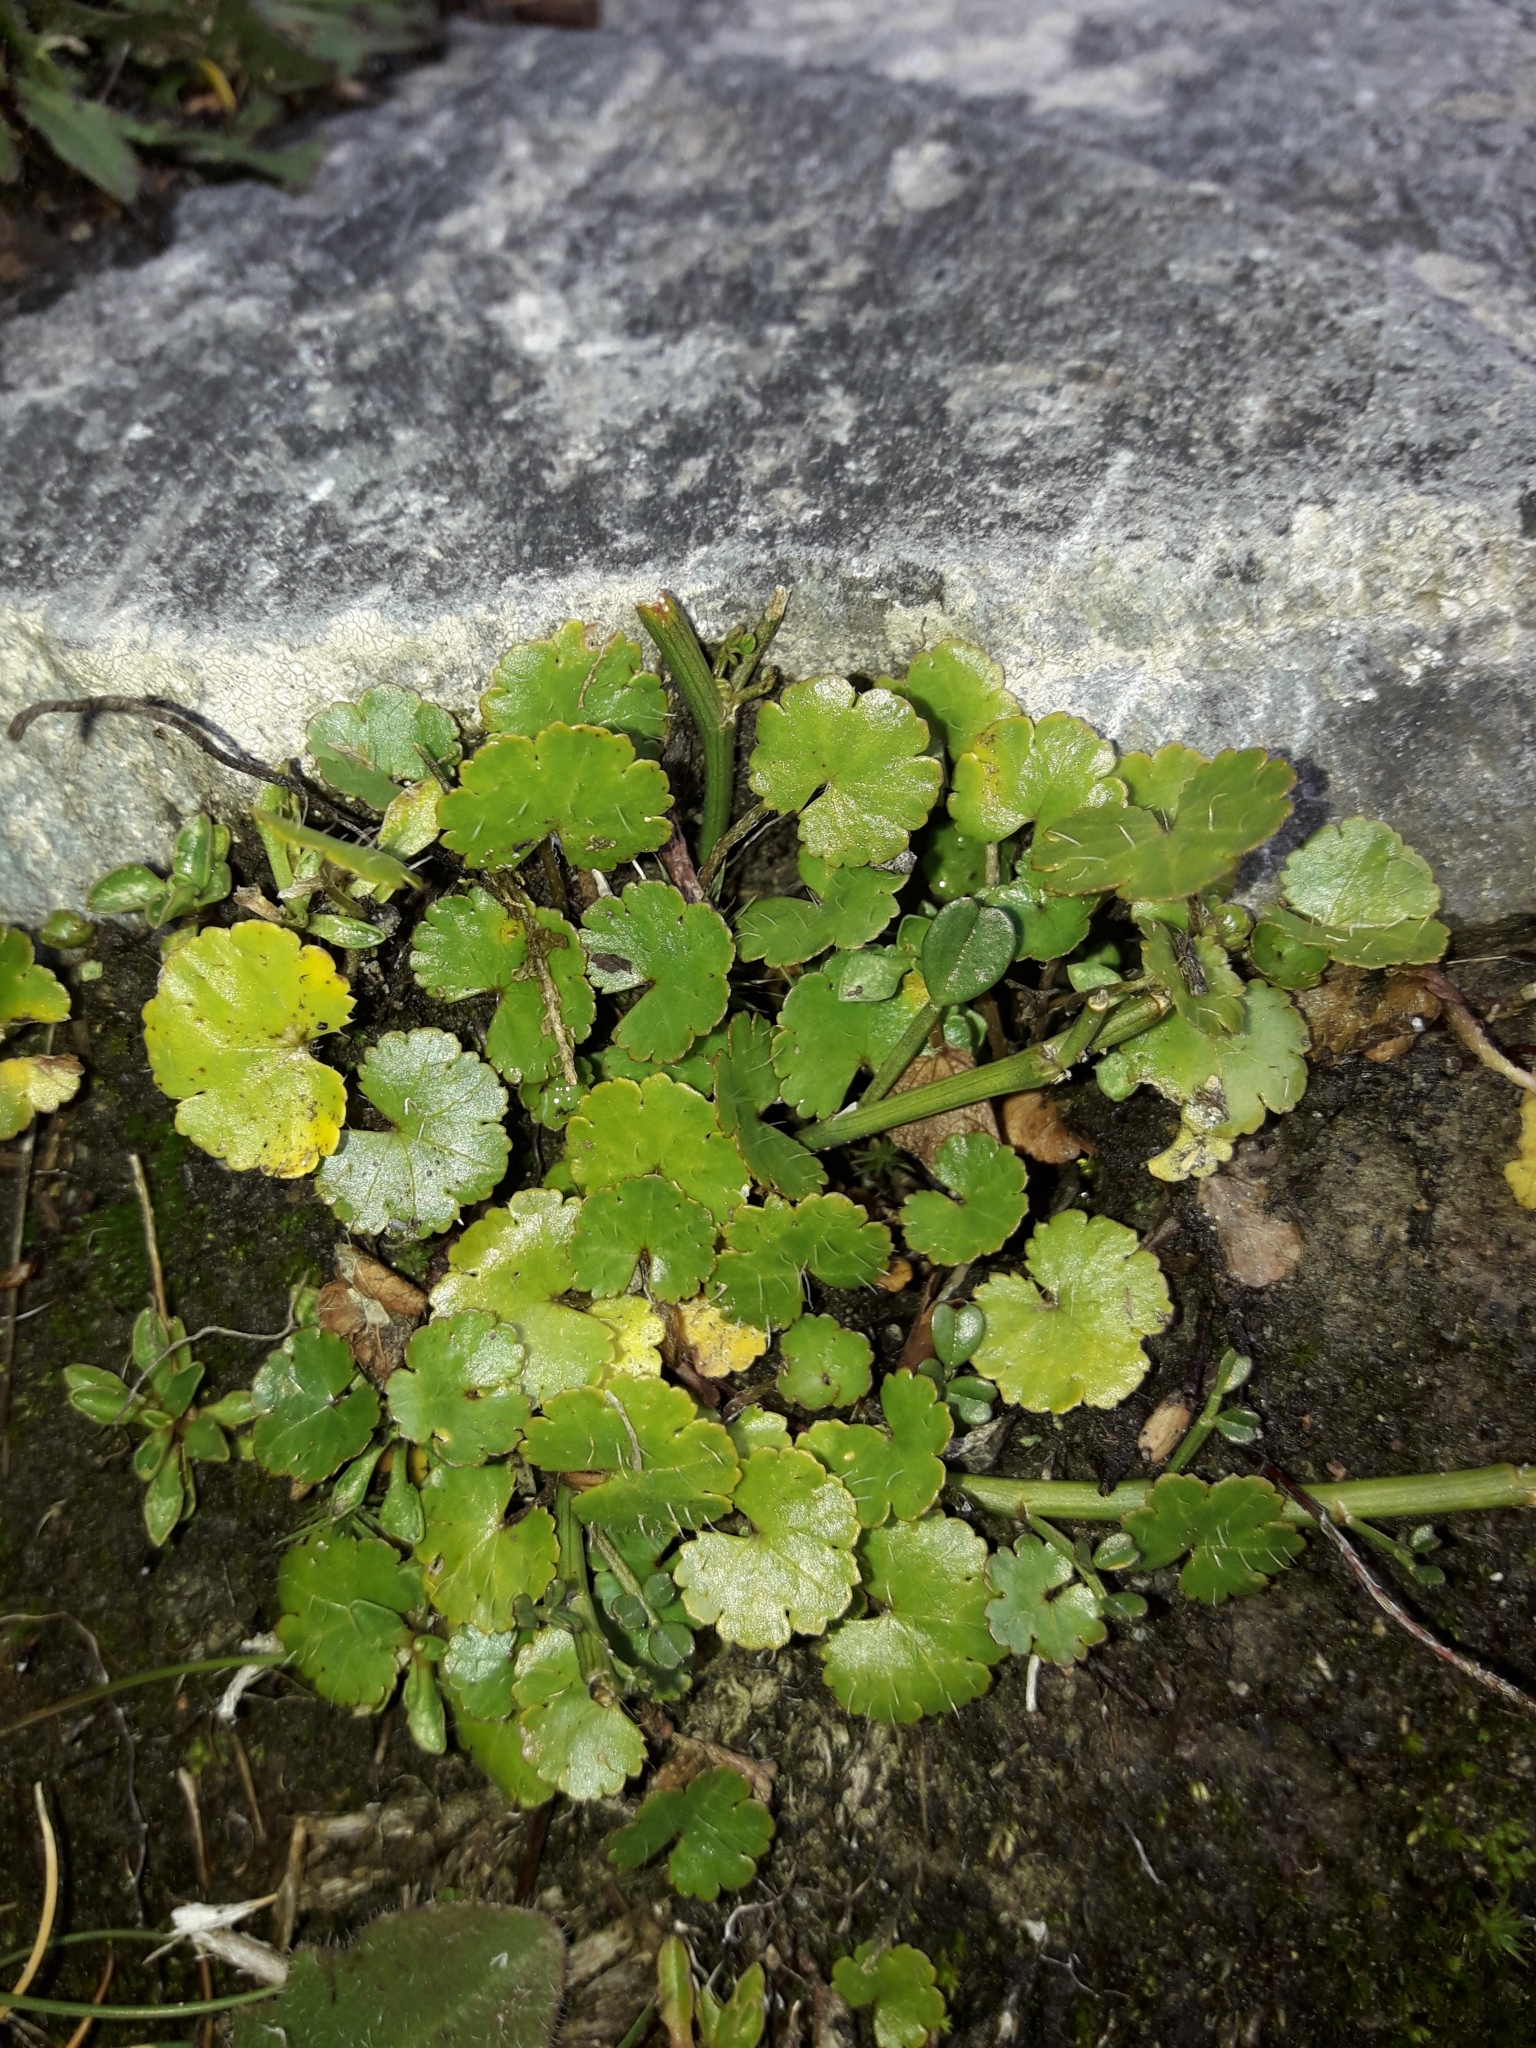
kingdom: Plantae
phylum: Tracheophyta
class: Magnoliopsida
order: Apiales
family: Araliaceae
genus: Hydrocotyle
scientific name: Hydrocotyle novae-zeelandiae
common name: New zealand pennywort
